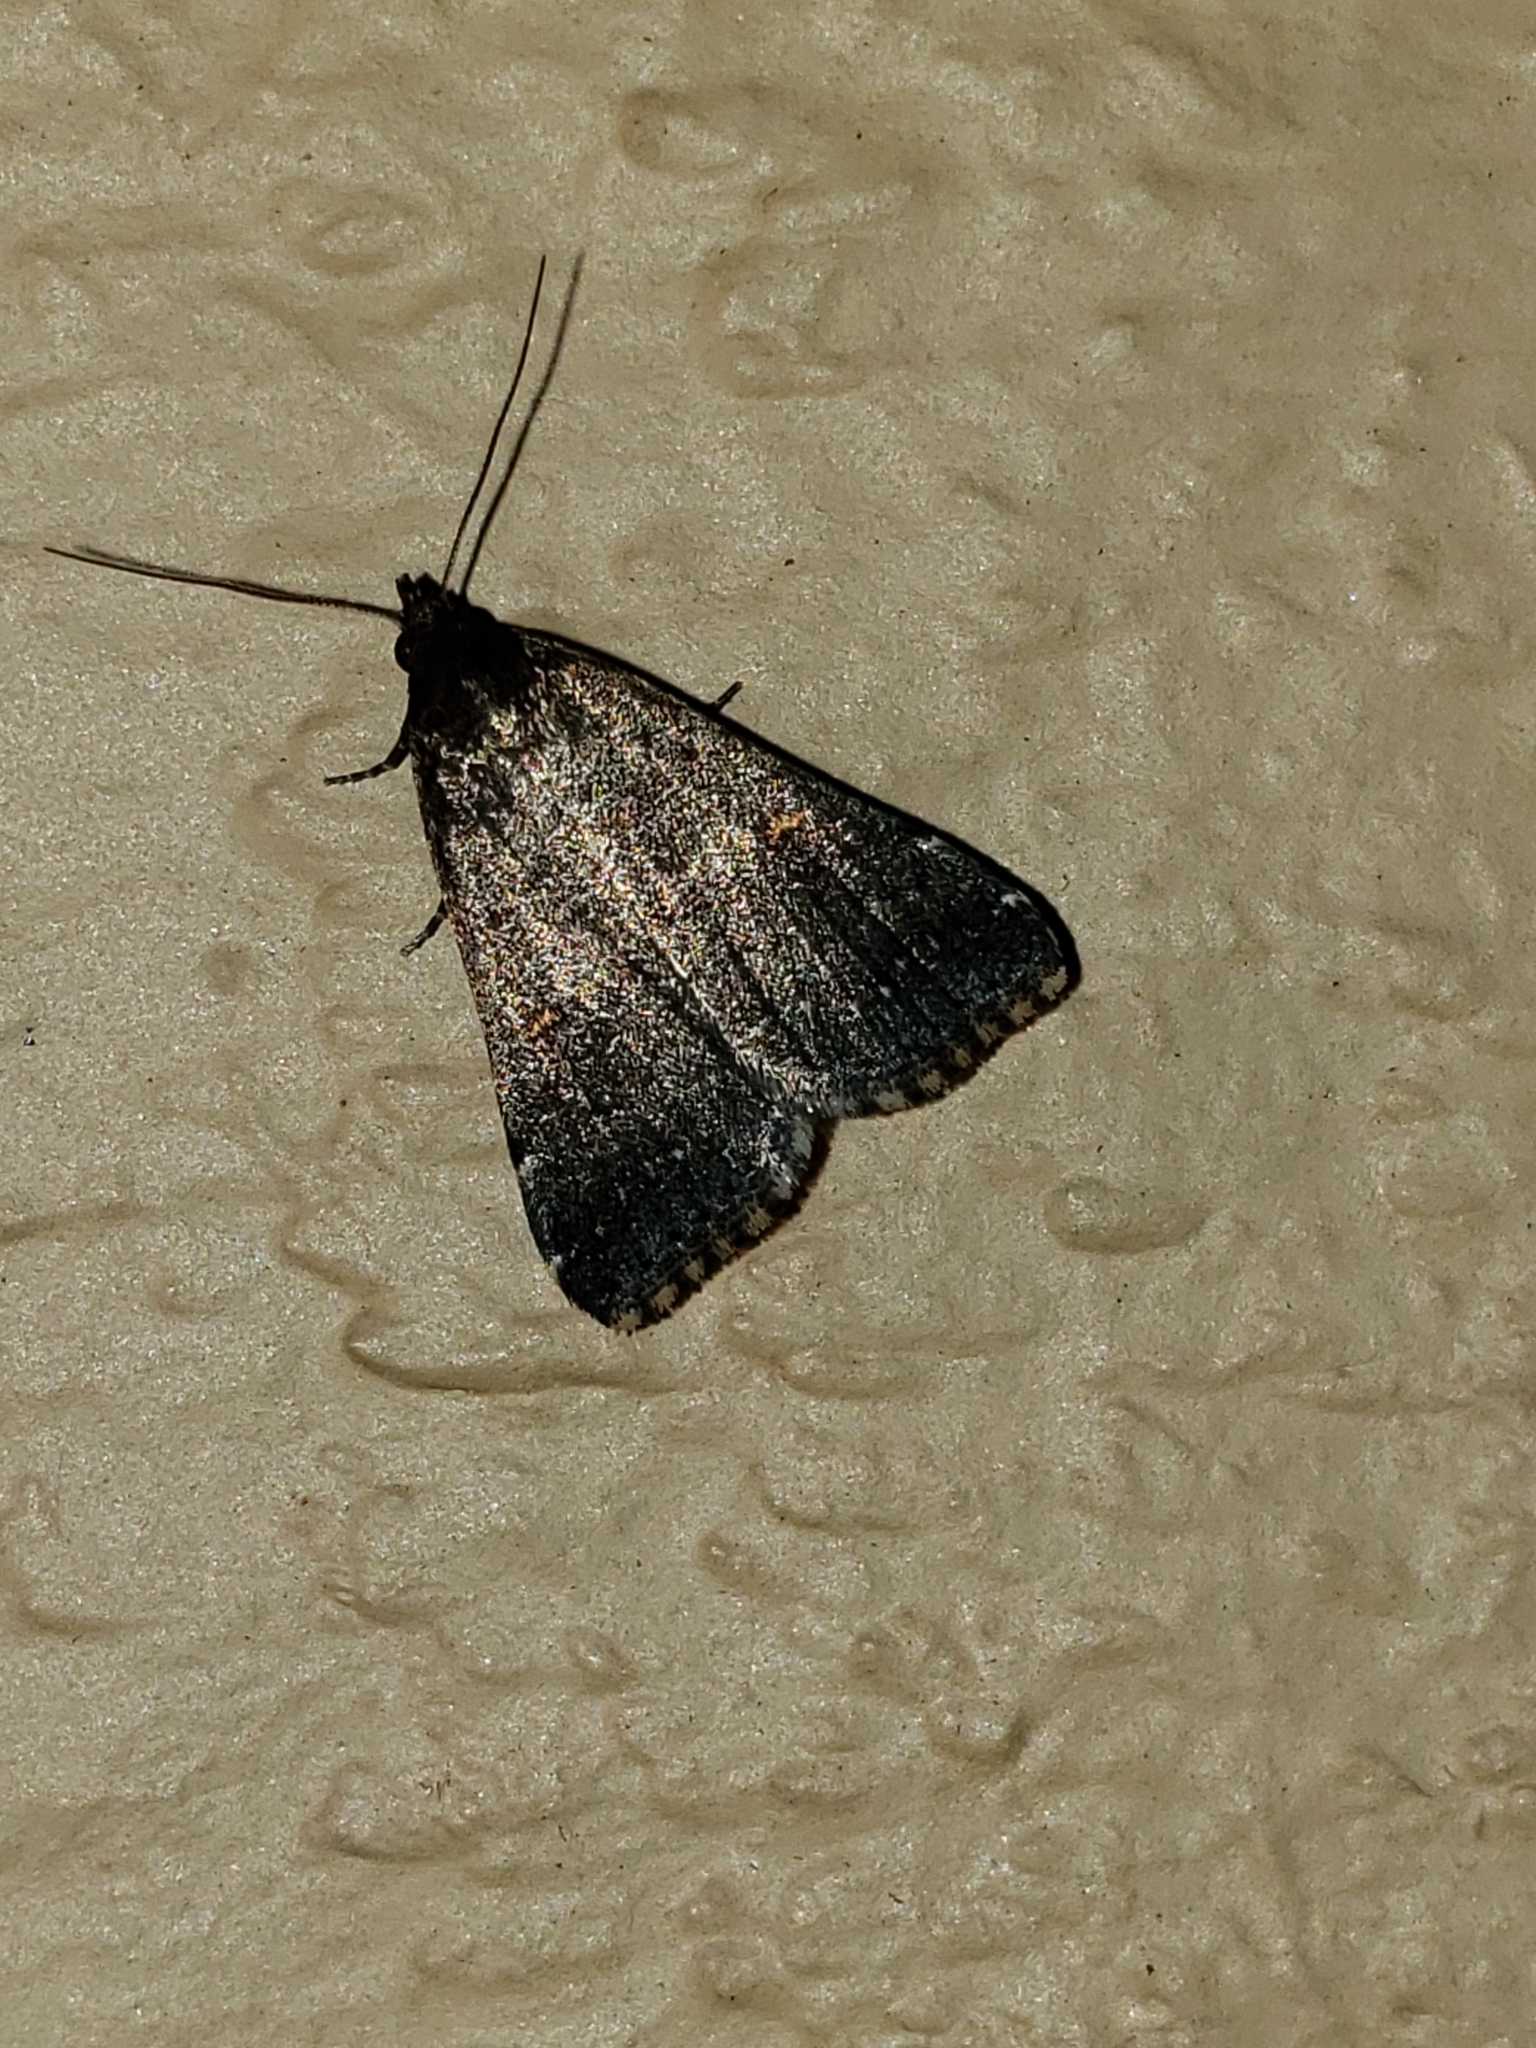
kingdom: Animalia
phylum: Arthropoda
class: Insecta
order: Lepidoptera
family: Erebidae
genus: Tetanolita
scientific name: Tetanolita mynesalis
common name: Smoky tetanolita moth
